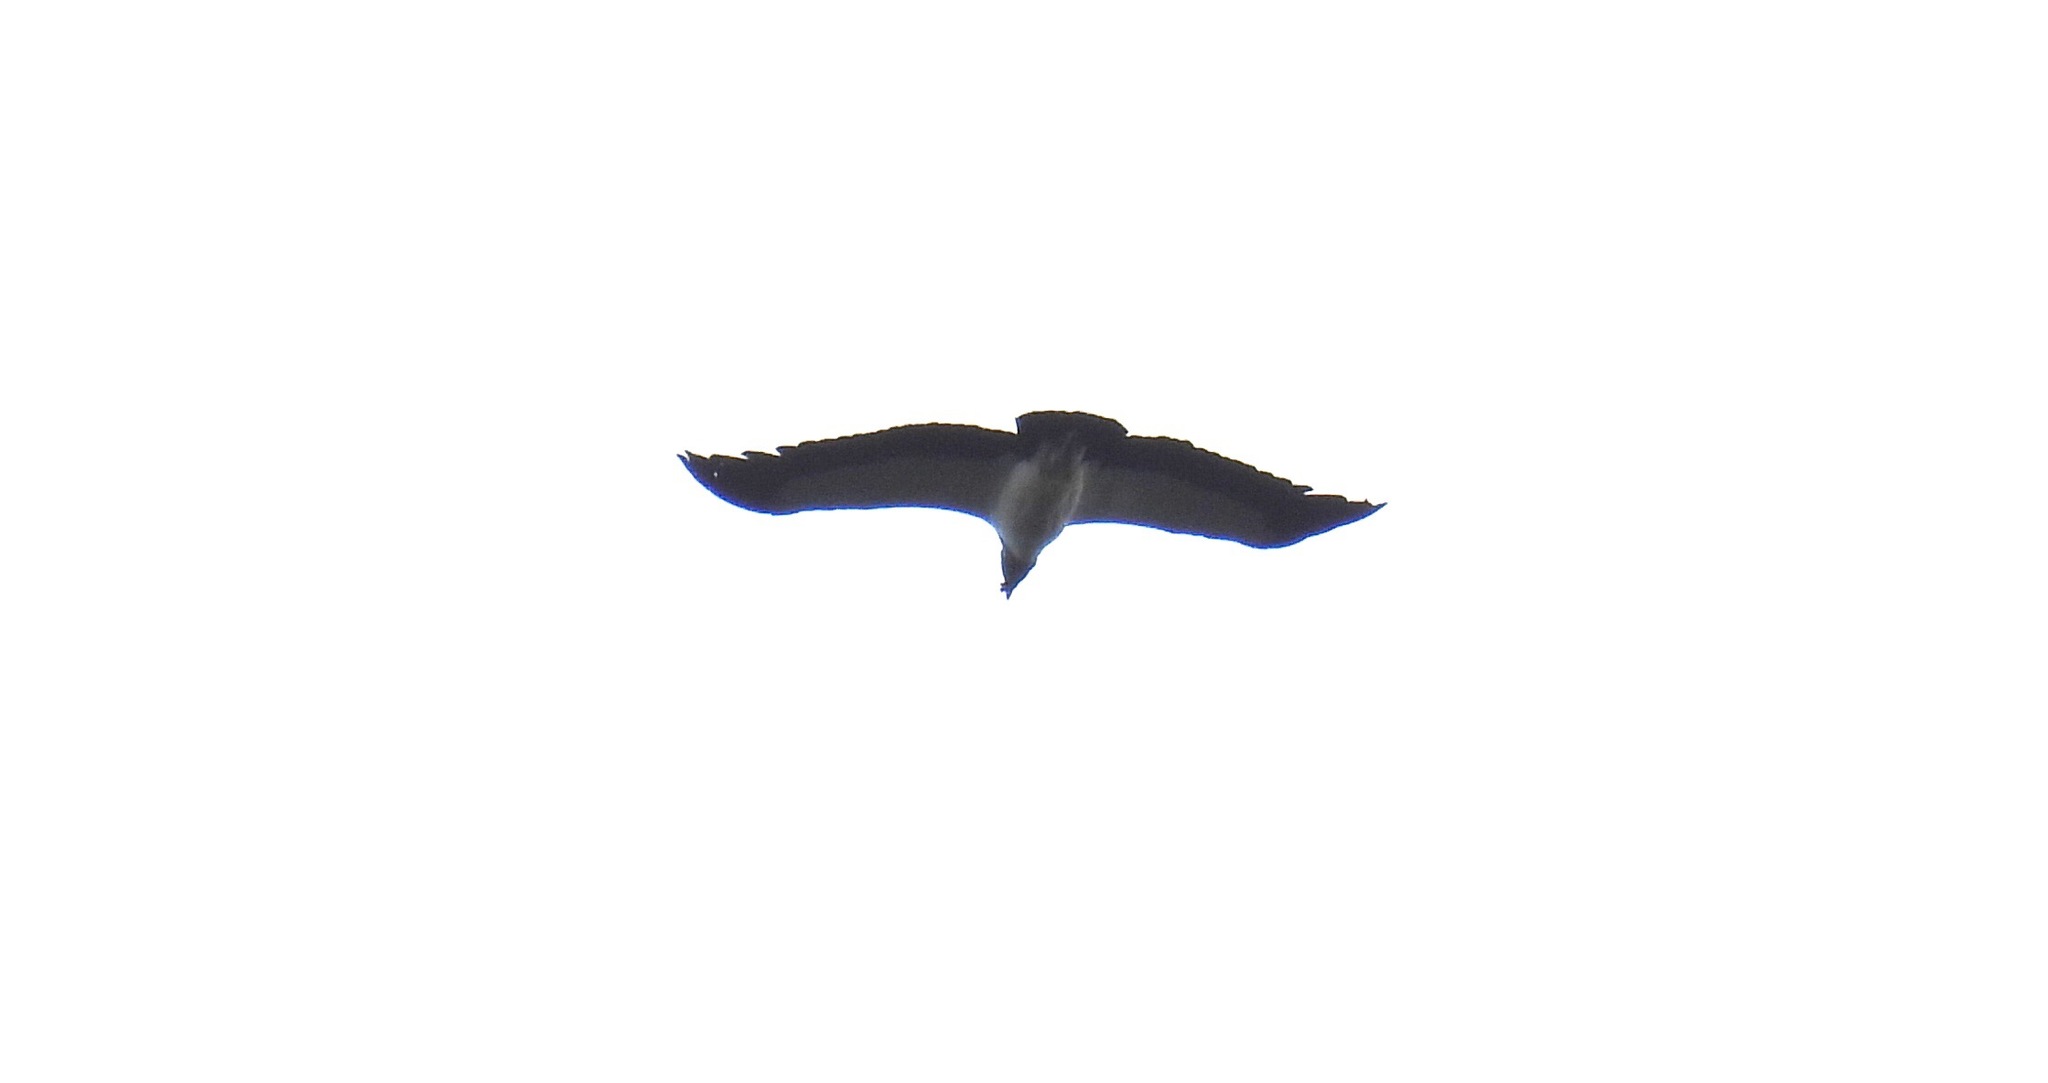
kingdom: Animalia
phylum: Chordata
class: Aves
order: Accipitriformes
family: Accipitridae
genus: Buteo
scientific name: Buteo brachyurus
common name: Short-tailed hawk
